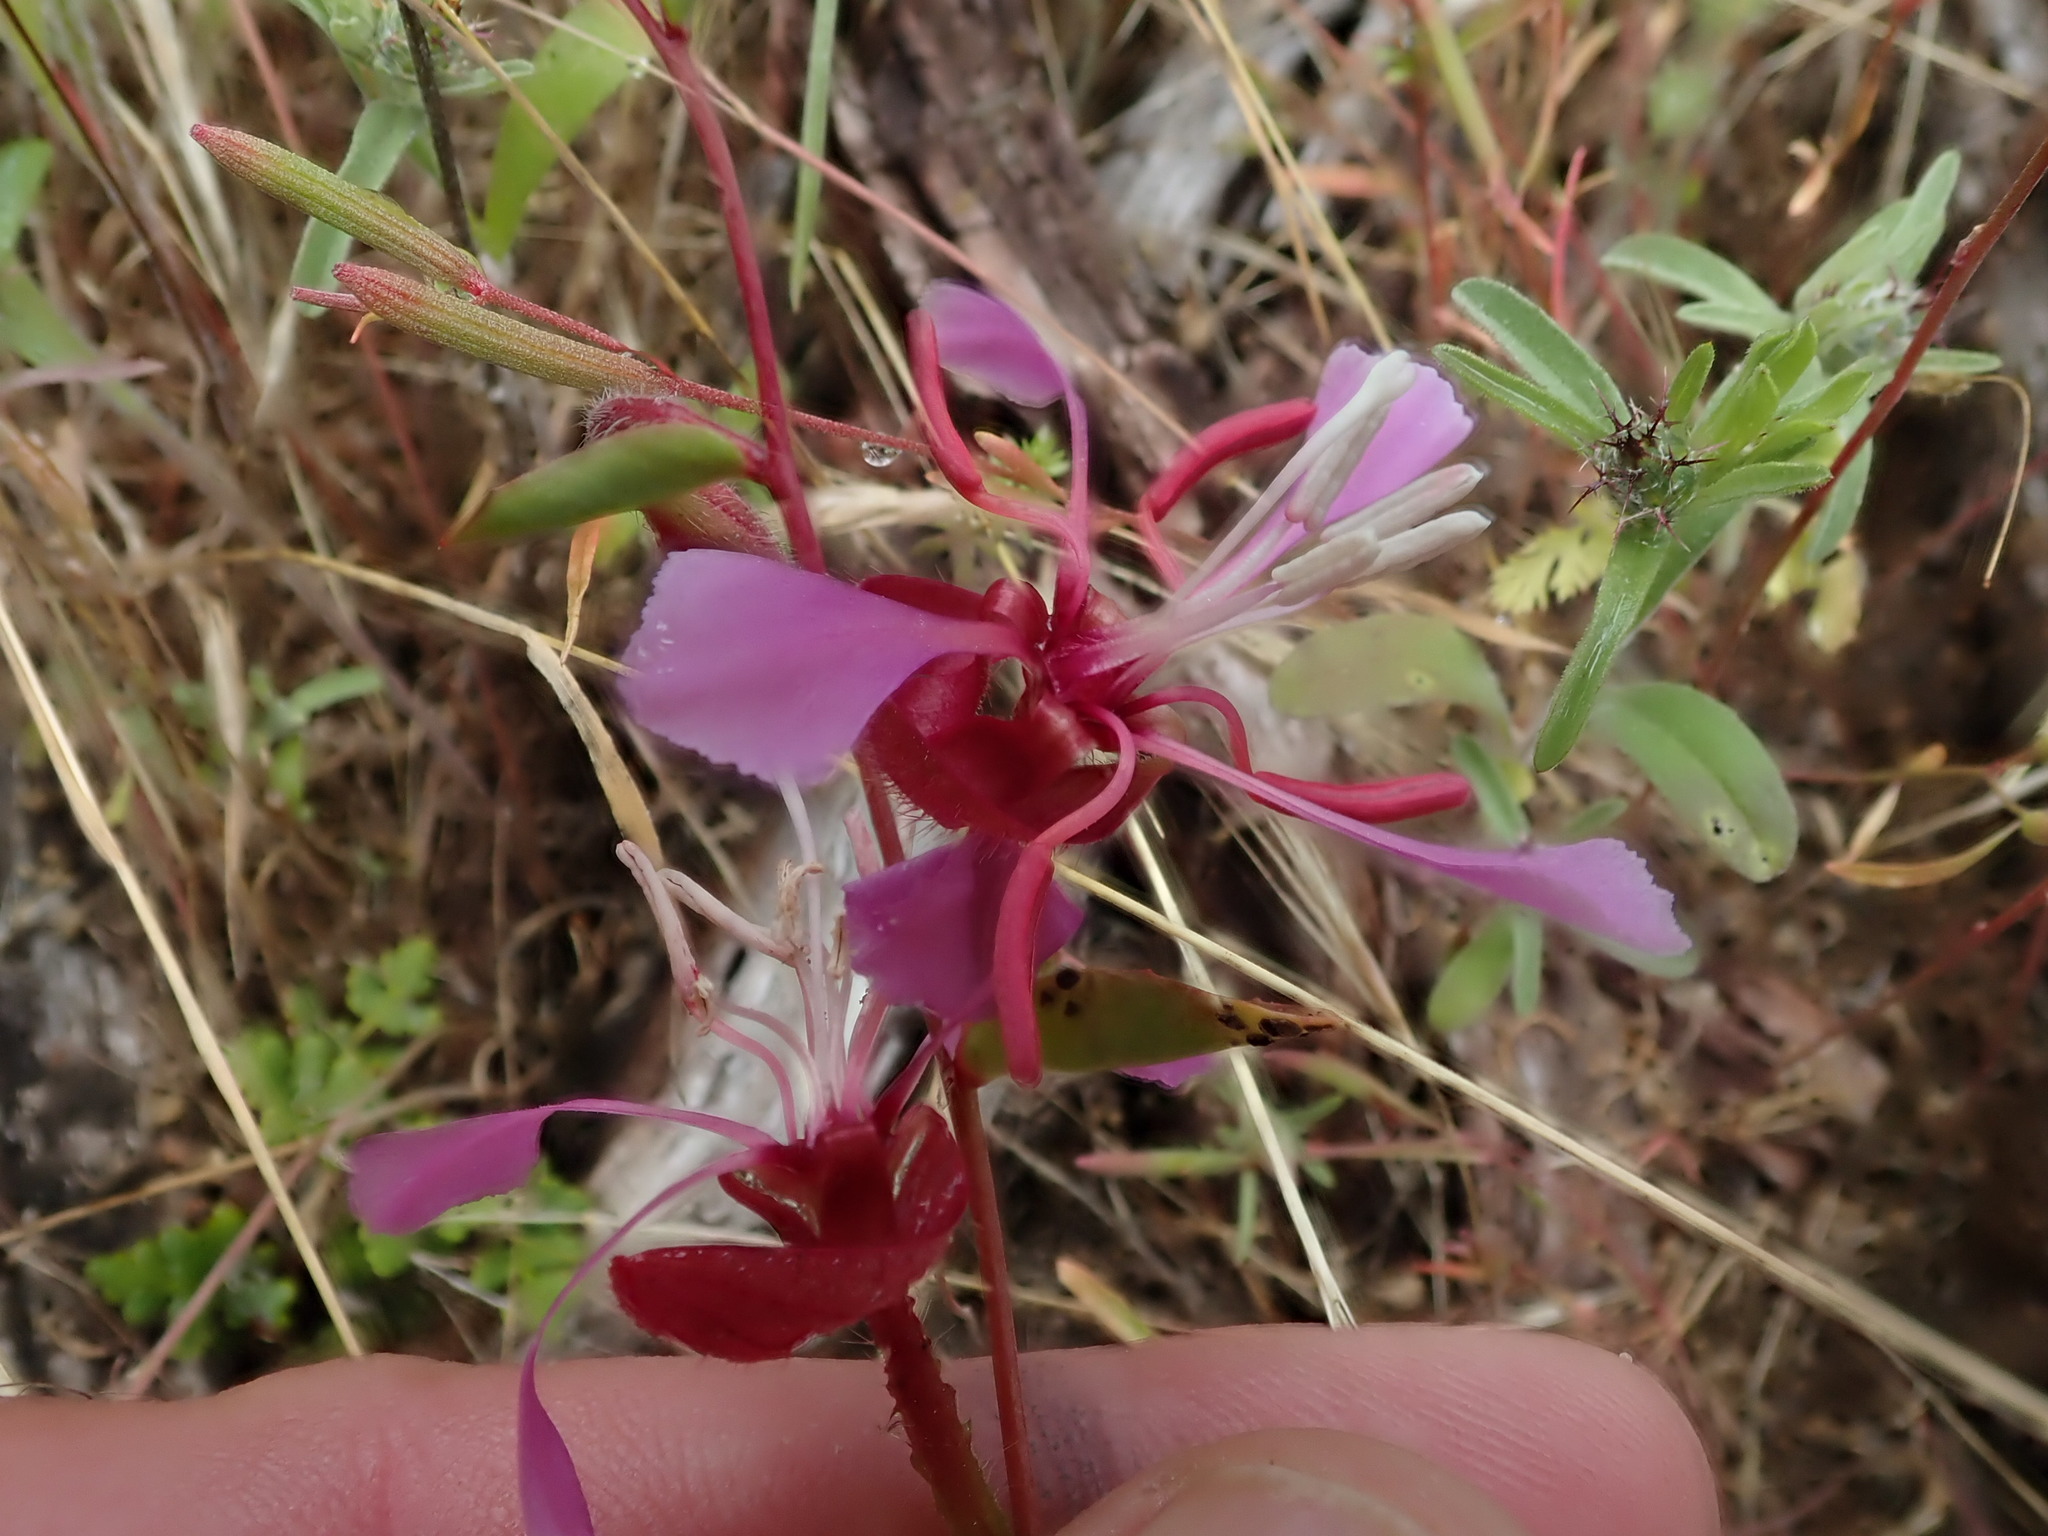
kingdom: Plantae
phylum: Tracheophyta
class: Magnoliopsida
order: Myrtales
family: Onagraceae
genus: Clarkia
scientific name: Clarkia unguiculata
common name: Clarkia
